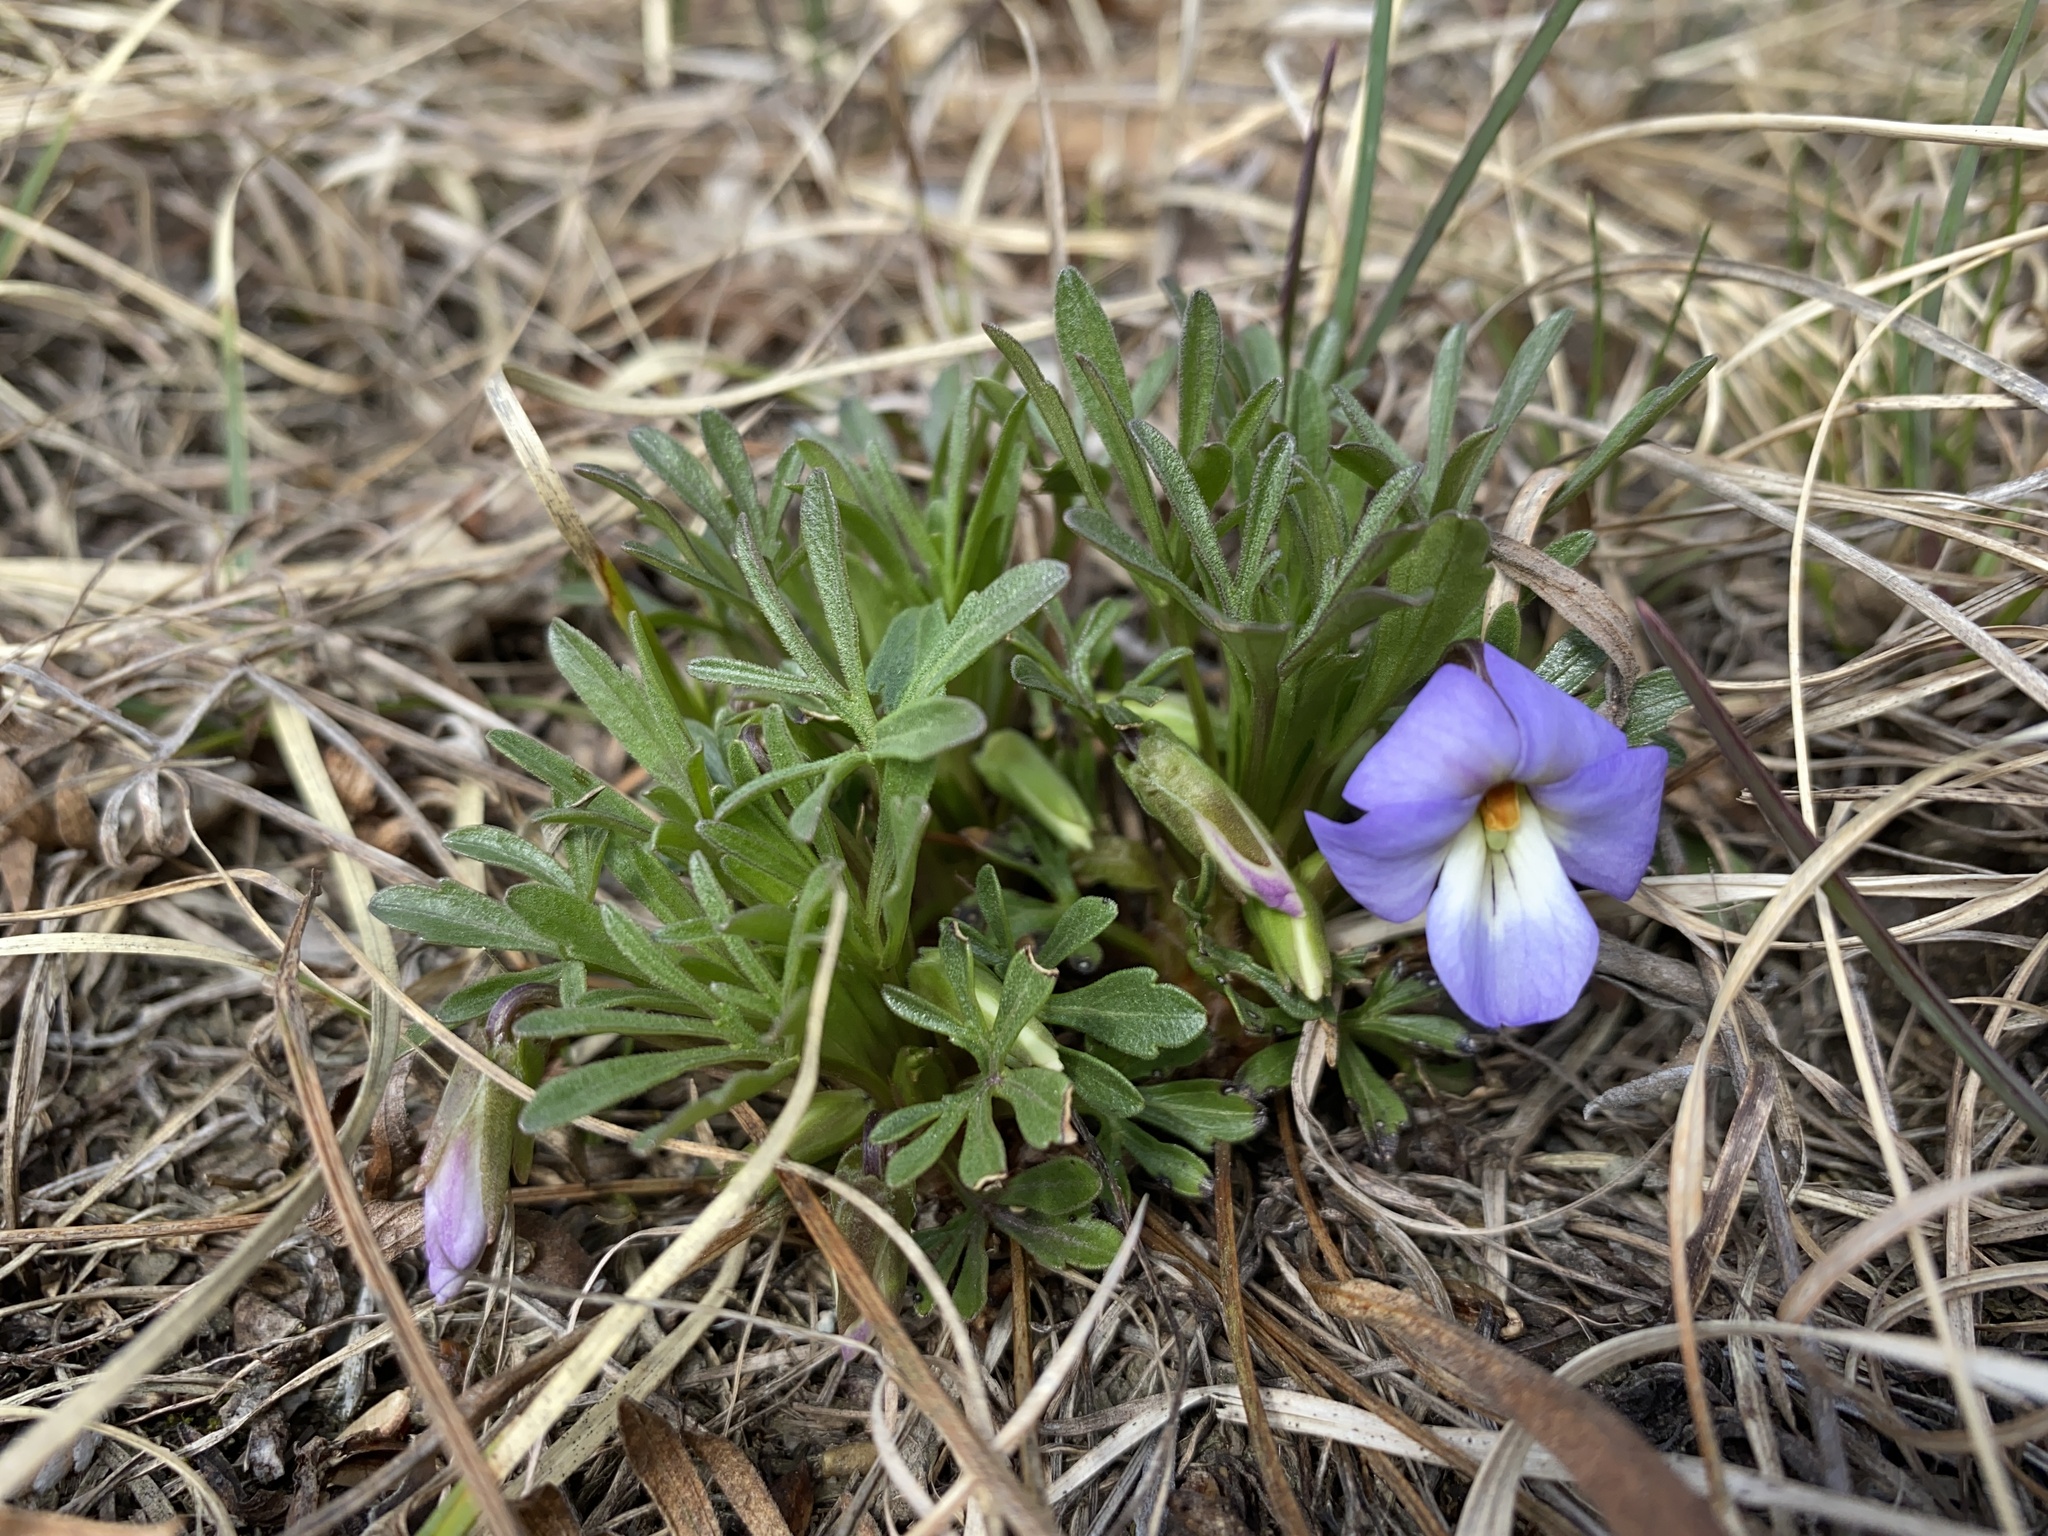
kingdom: Plantae
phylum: Tracheophyta
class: Magnoliopsida
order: Malpighiales
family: Violaceae
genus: Viola
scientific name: Viola pedata
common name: Pansy violet
